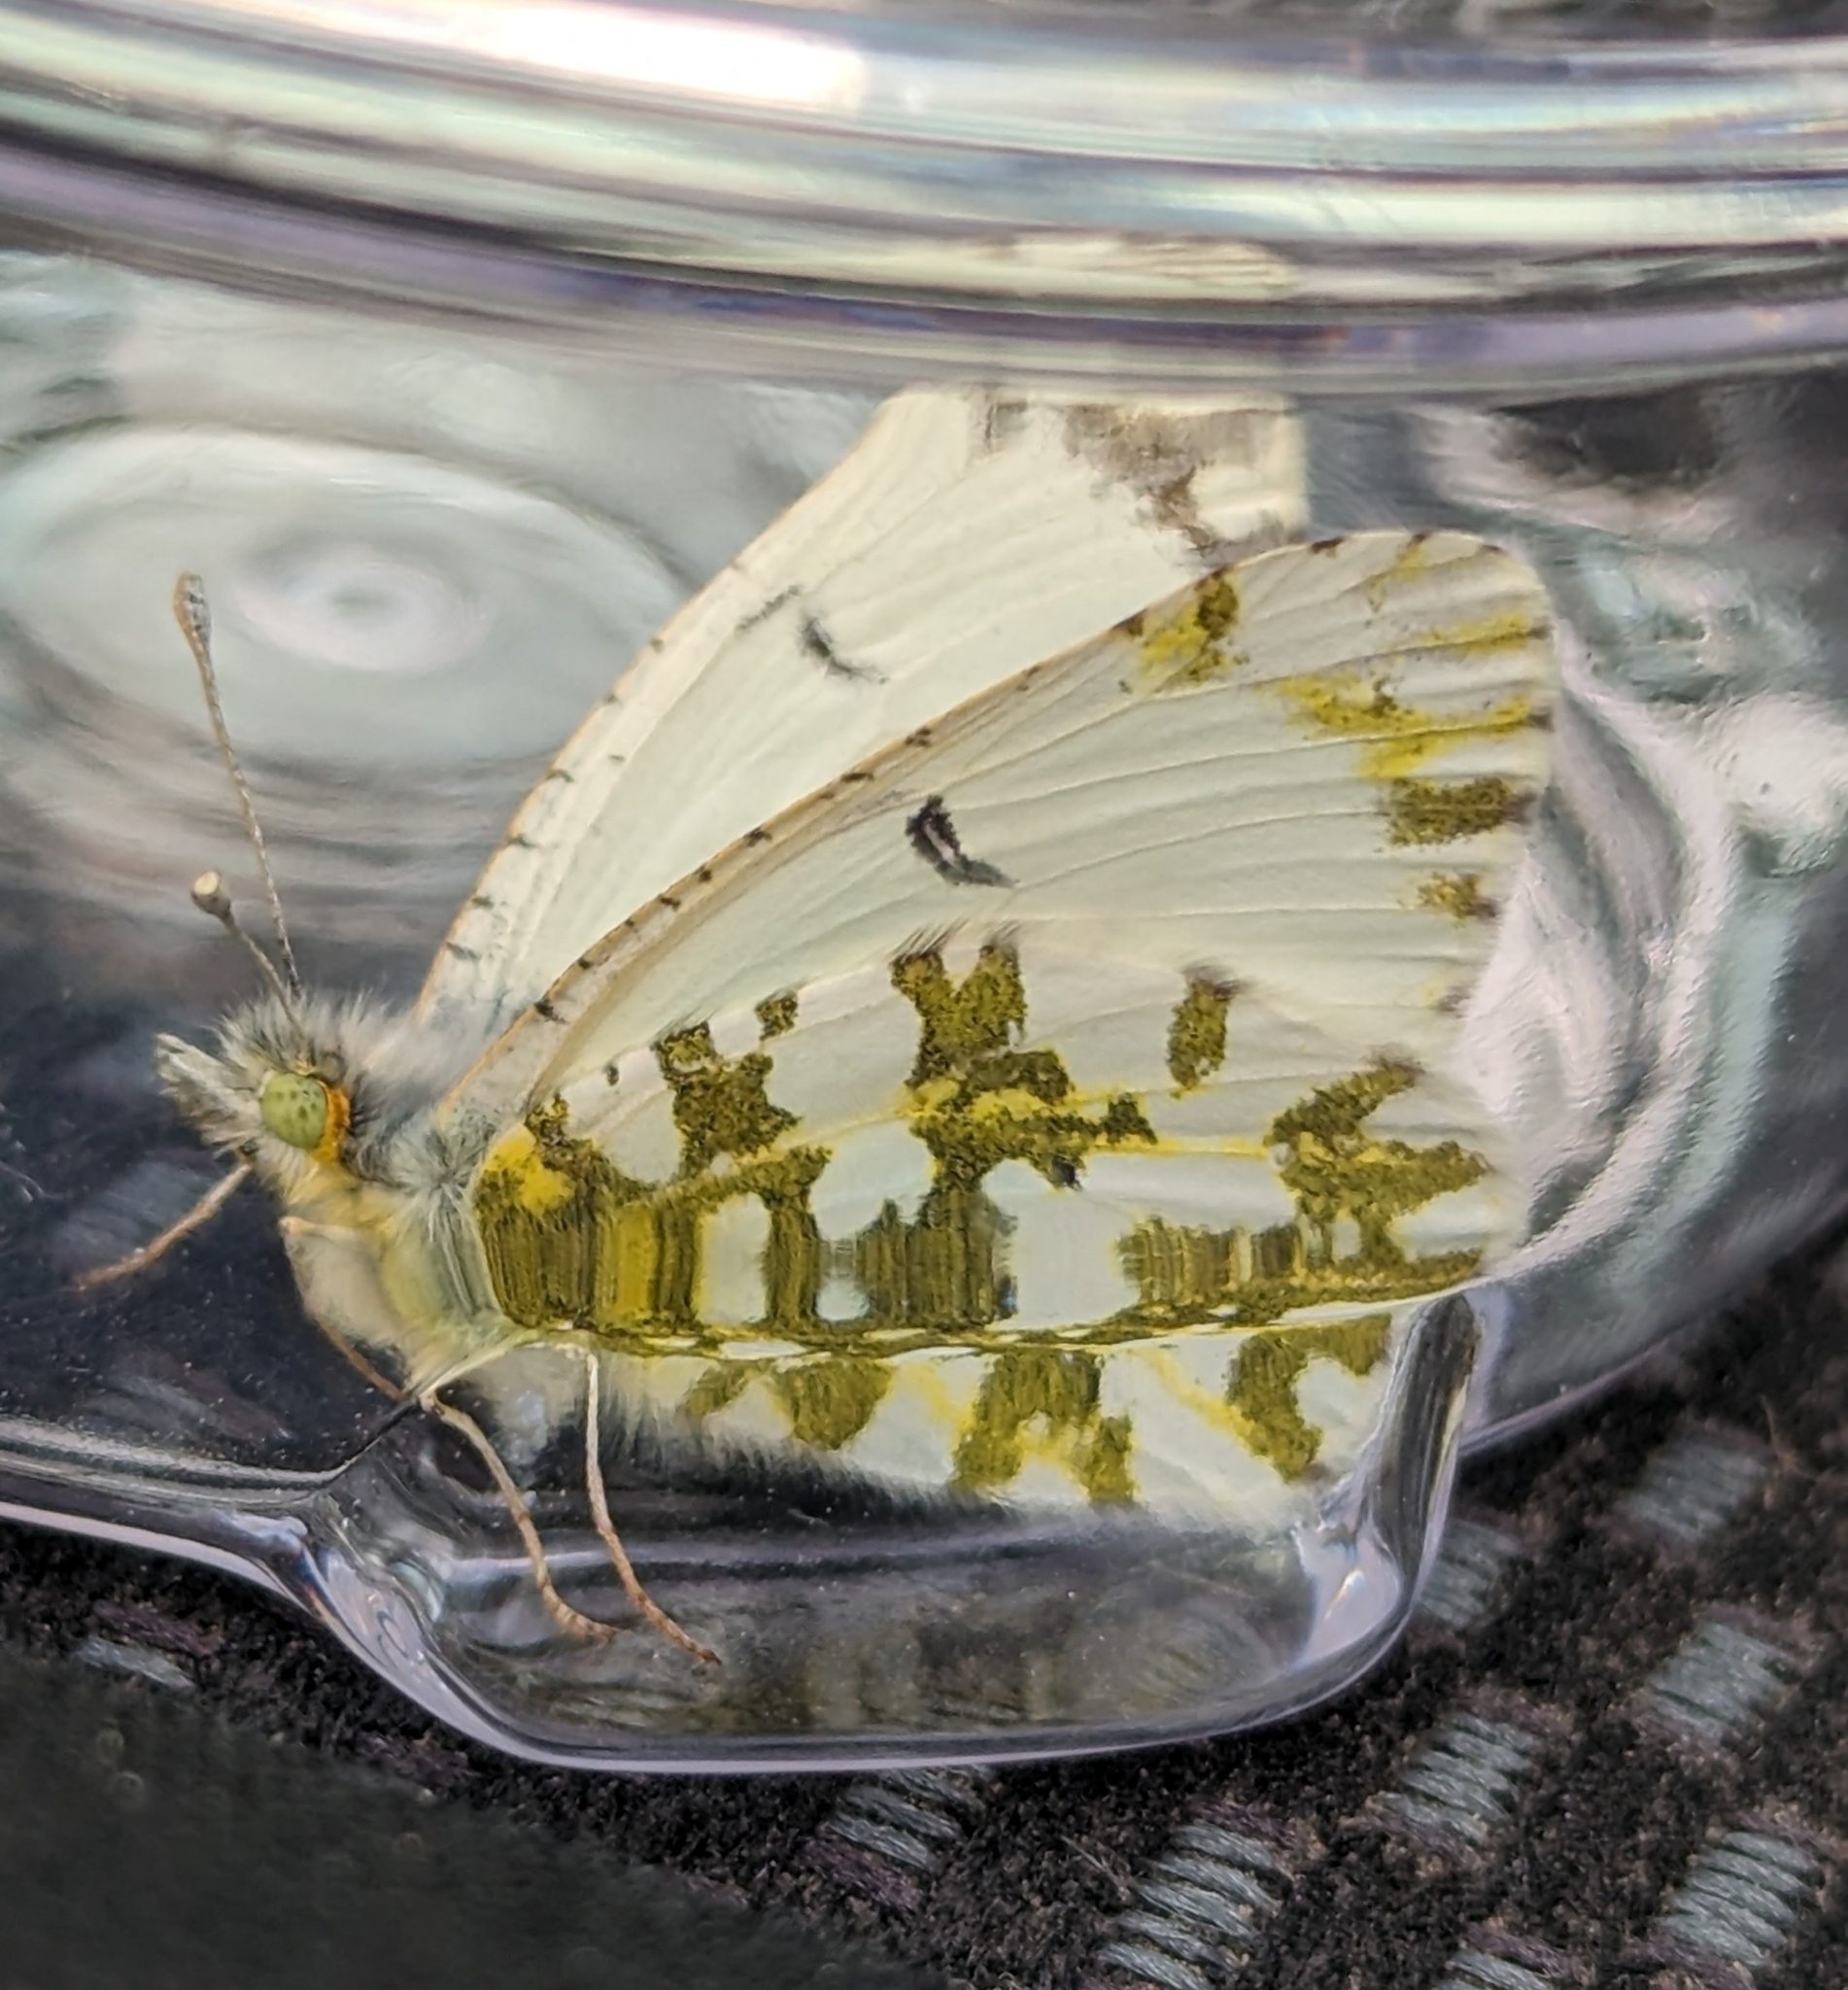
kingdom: Animalia
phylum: Arthropoda
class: Insecta
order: Lepidoptera
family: Pieridae
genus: Euchloe
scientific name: Euchloe ausonides
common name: Creamy marblewing
